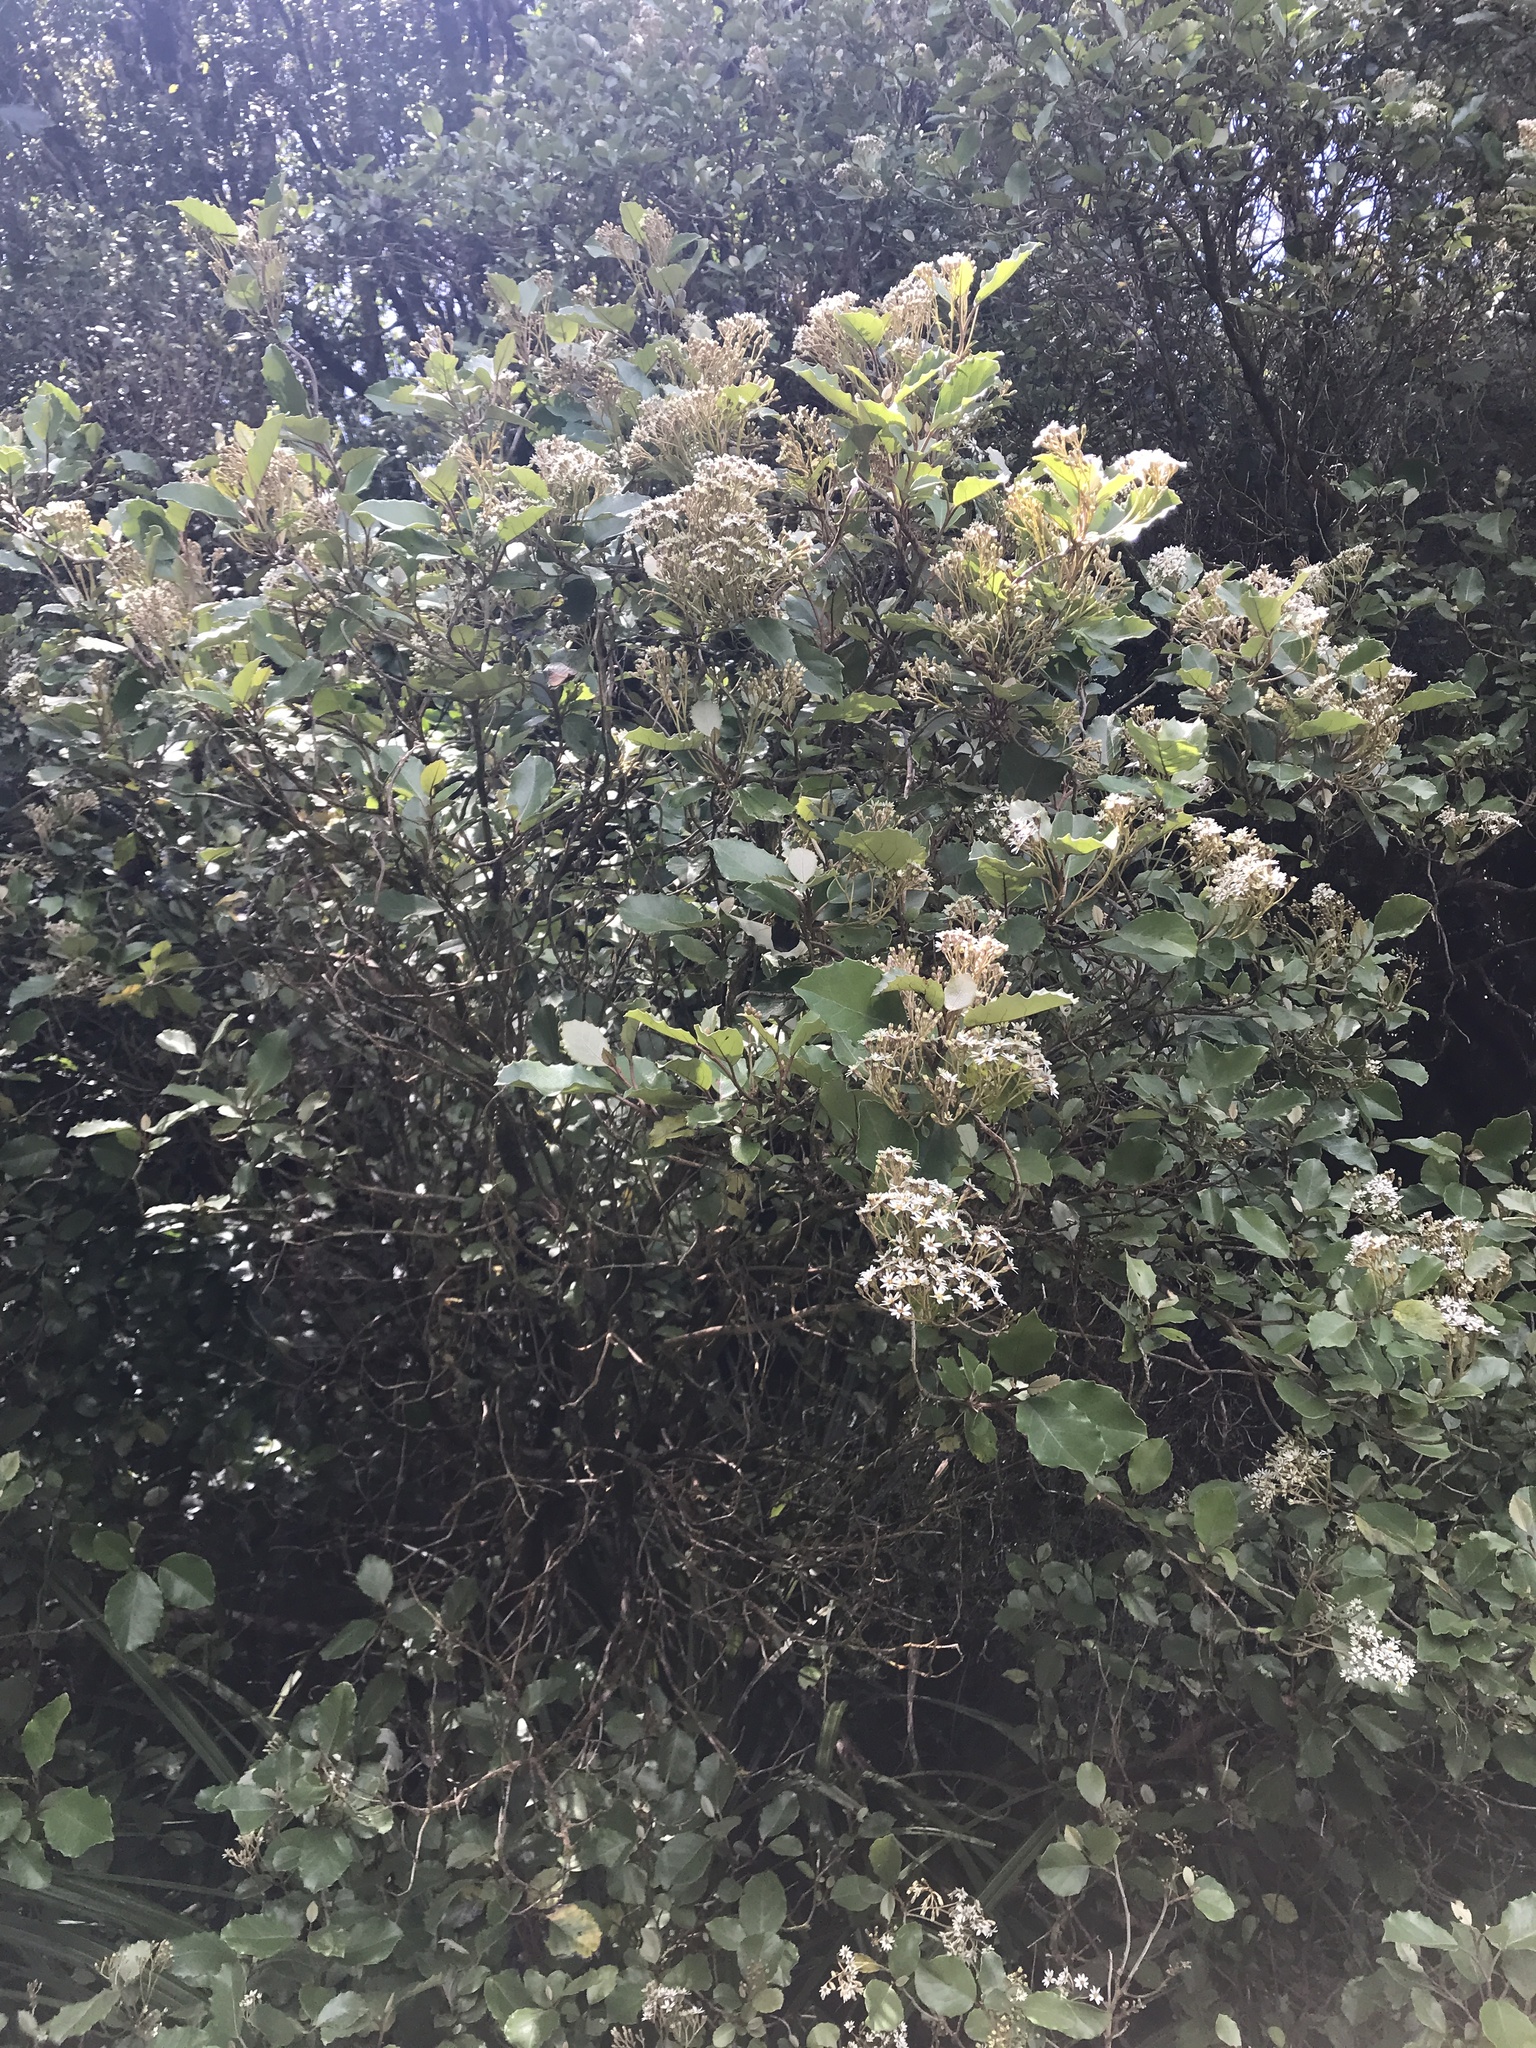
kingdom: Plantae
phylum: Tracheophyta
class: Magnoliopsida
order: Asterales
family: Asteraceae
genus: Olearia
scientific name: Olearia arborescens
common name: Glossy tree daisy
